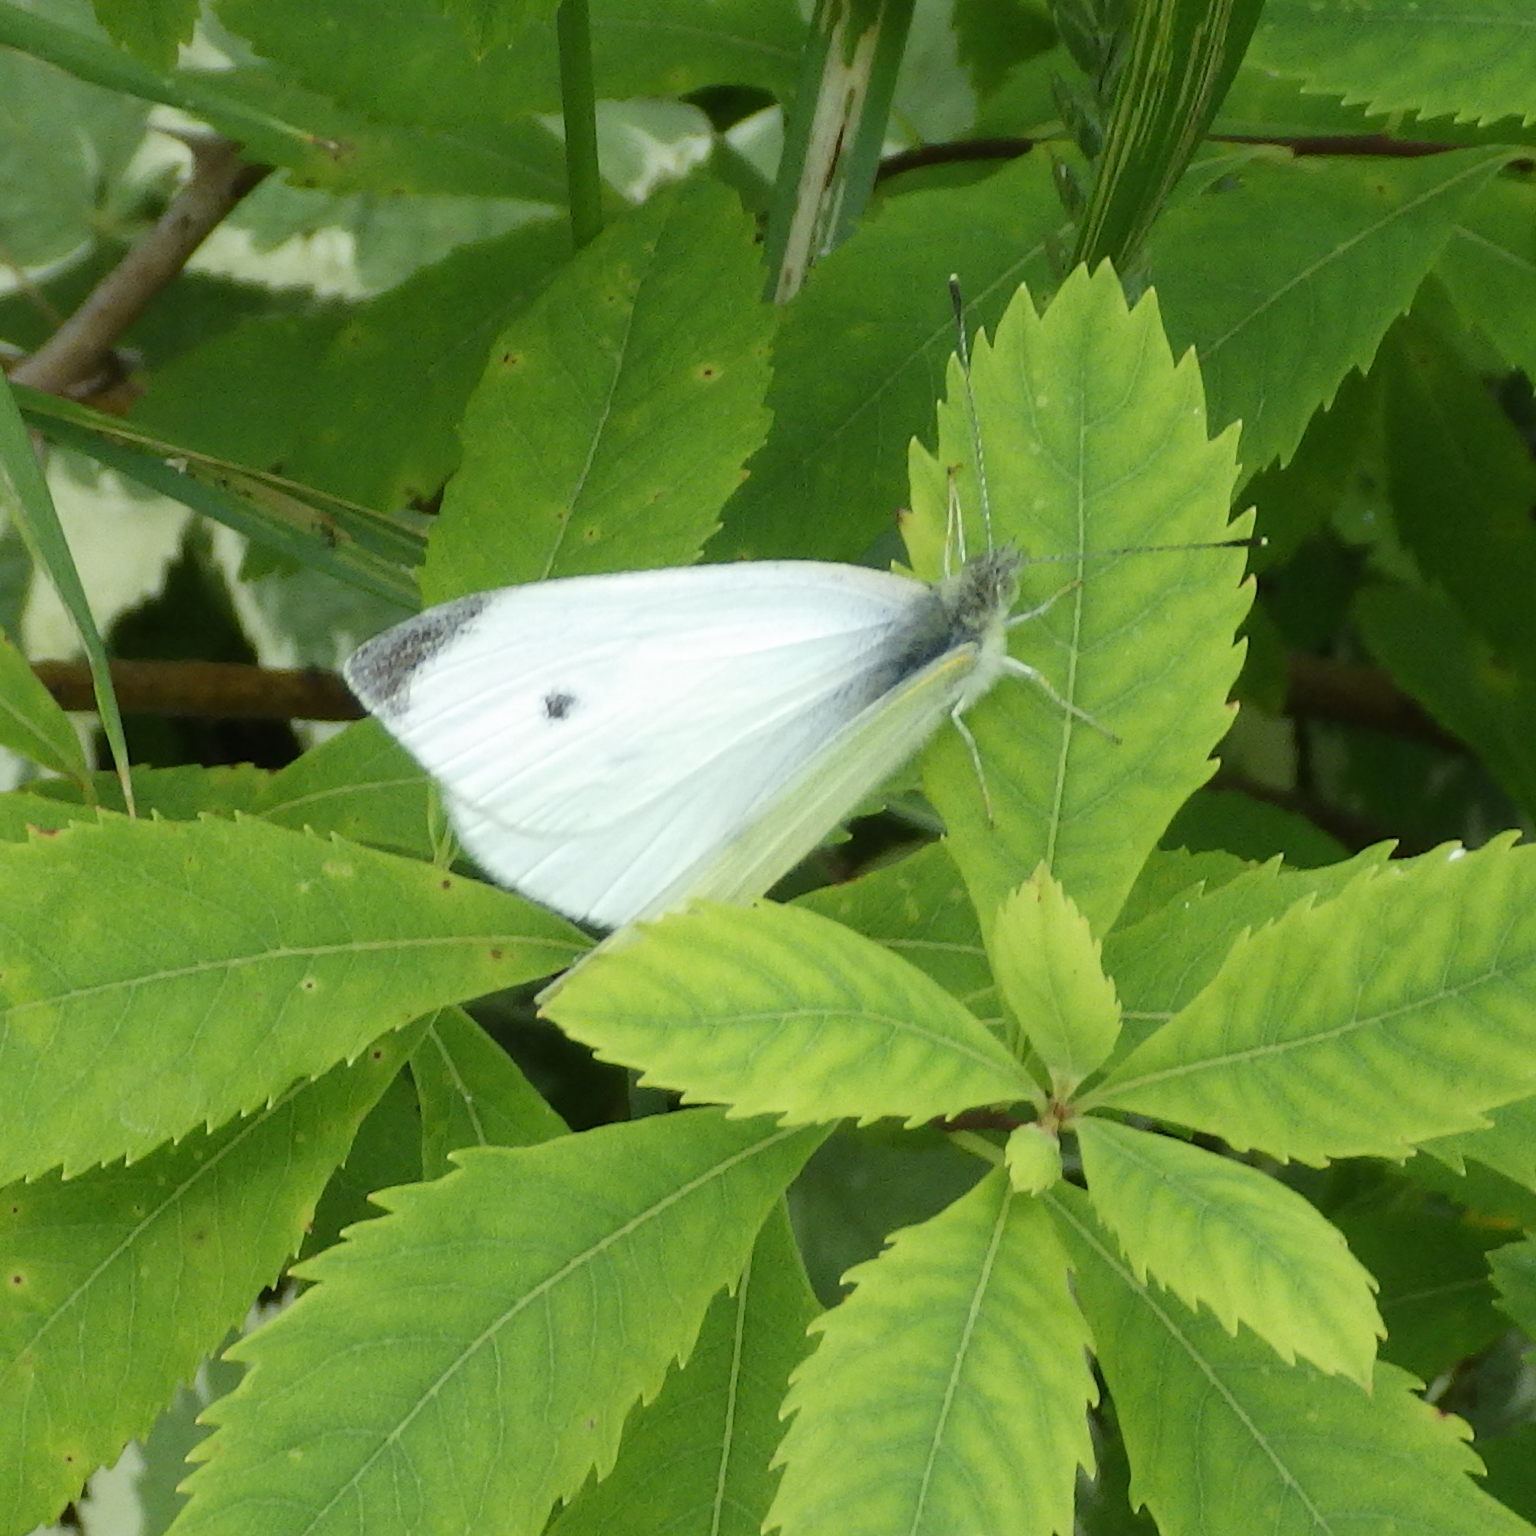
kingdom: Animalia
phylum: Arthropoda
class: Insecta
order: Lepidoptera
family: Pieridae
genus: Pieris
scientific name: Pieris rapae
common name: Small white
